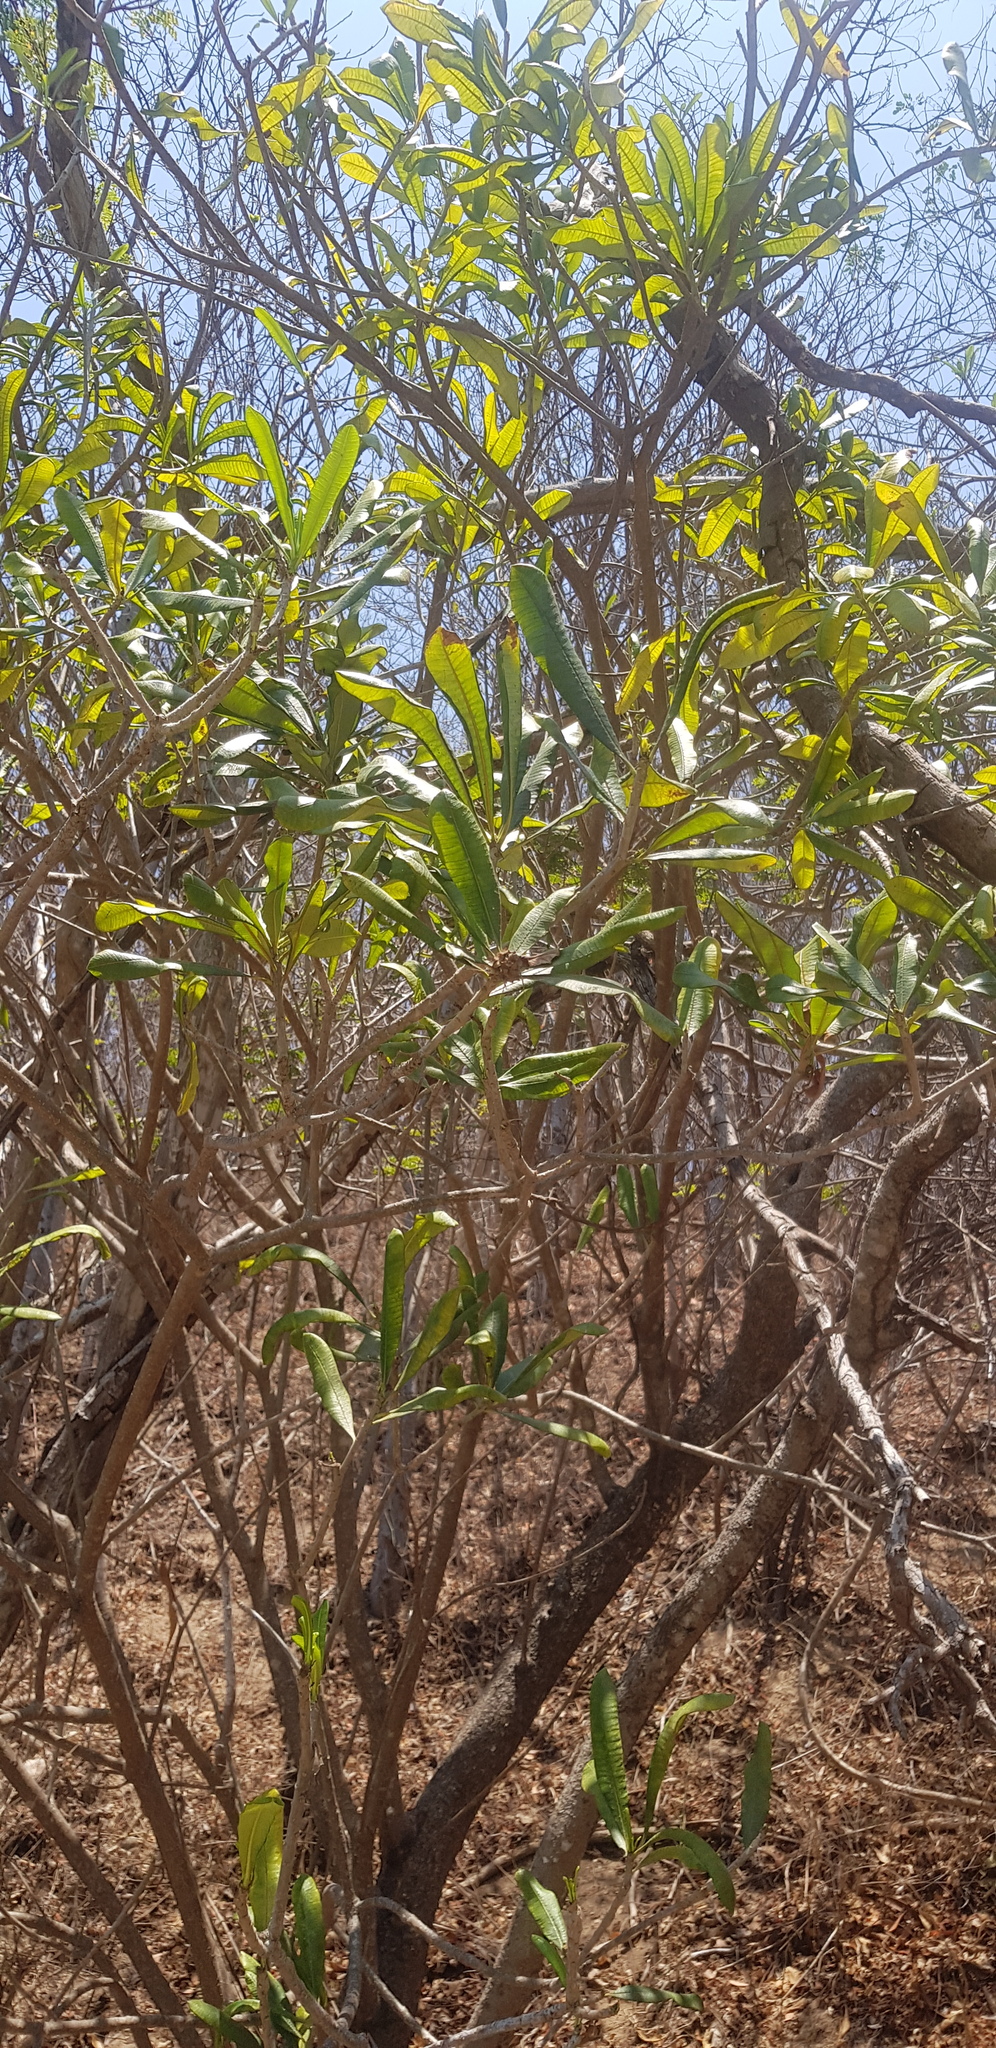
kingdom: Plantae
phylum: Tracheophyta
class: Magnoliopsida
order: Gentianales
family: Apocynaceae
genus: Cascabela
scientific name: Cascabela ovata
